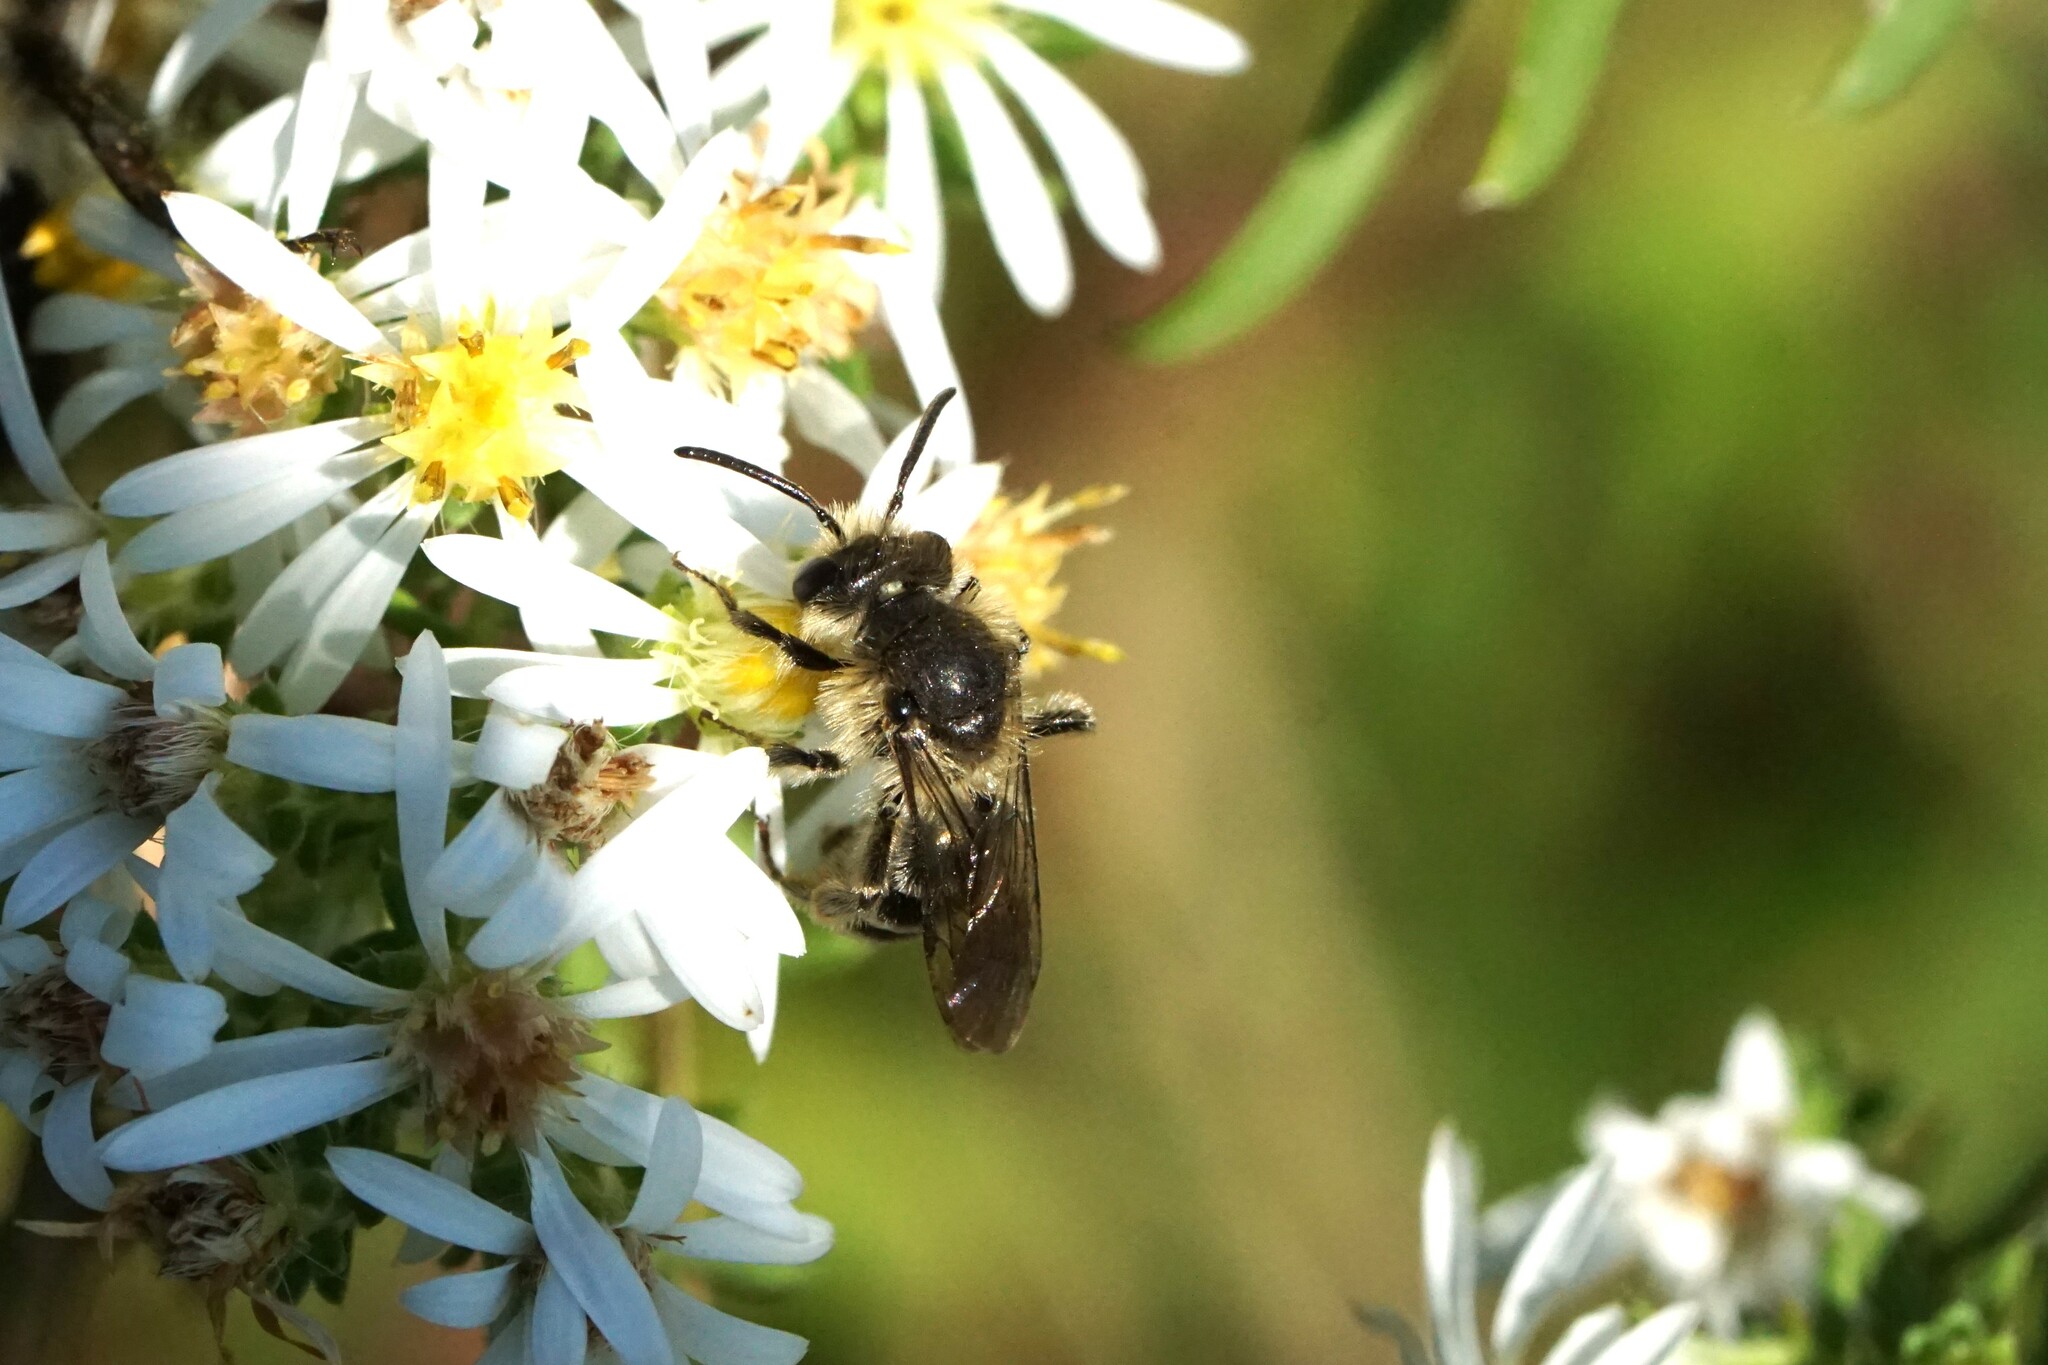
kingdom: Animalia
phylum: Arthropoda
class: Insecta
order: Hymenoptera
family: Andrenidae
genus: Andrena
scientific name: Andrena asteris
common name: Aster mining bee
